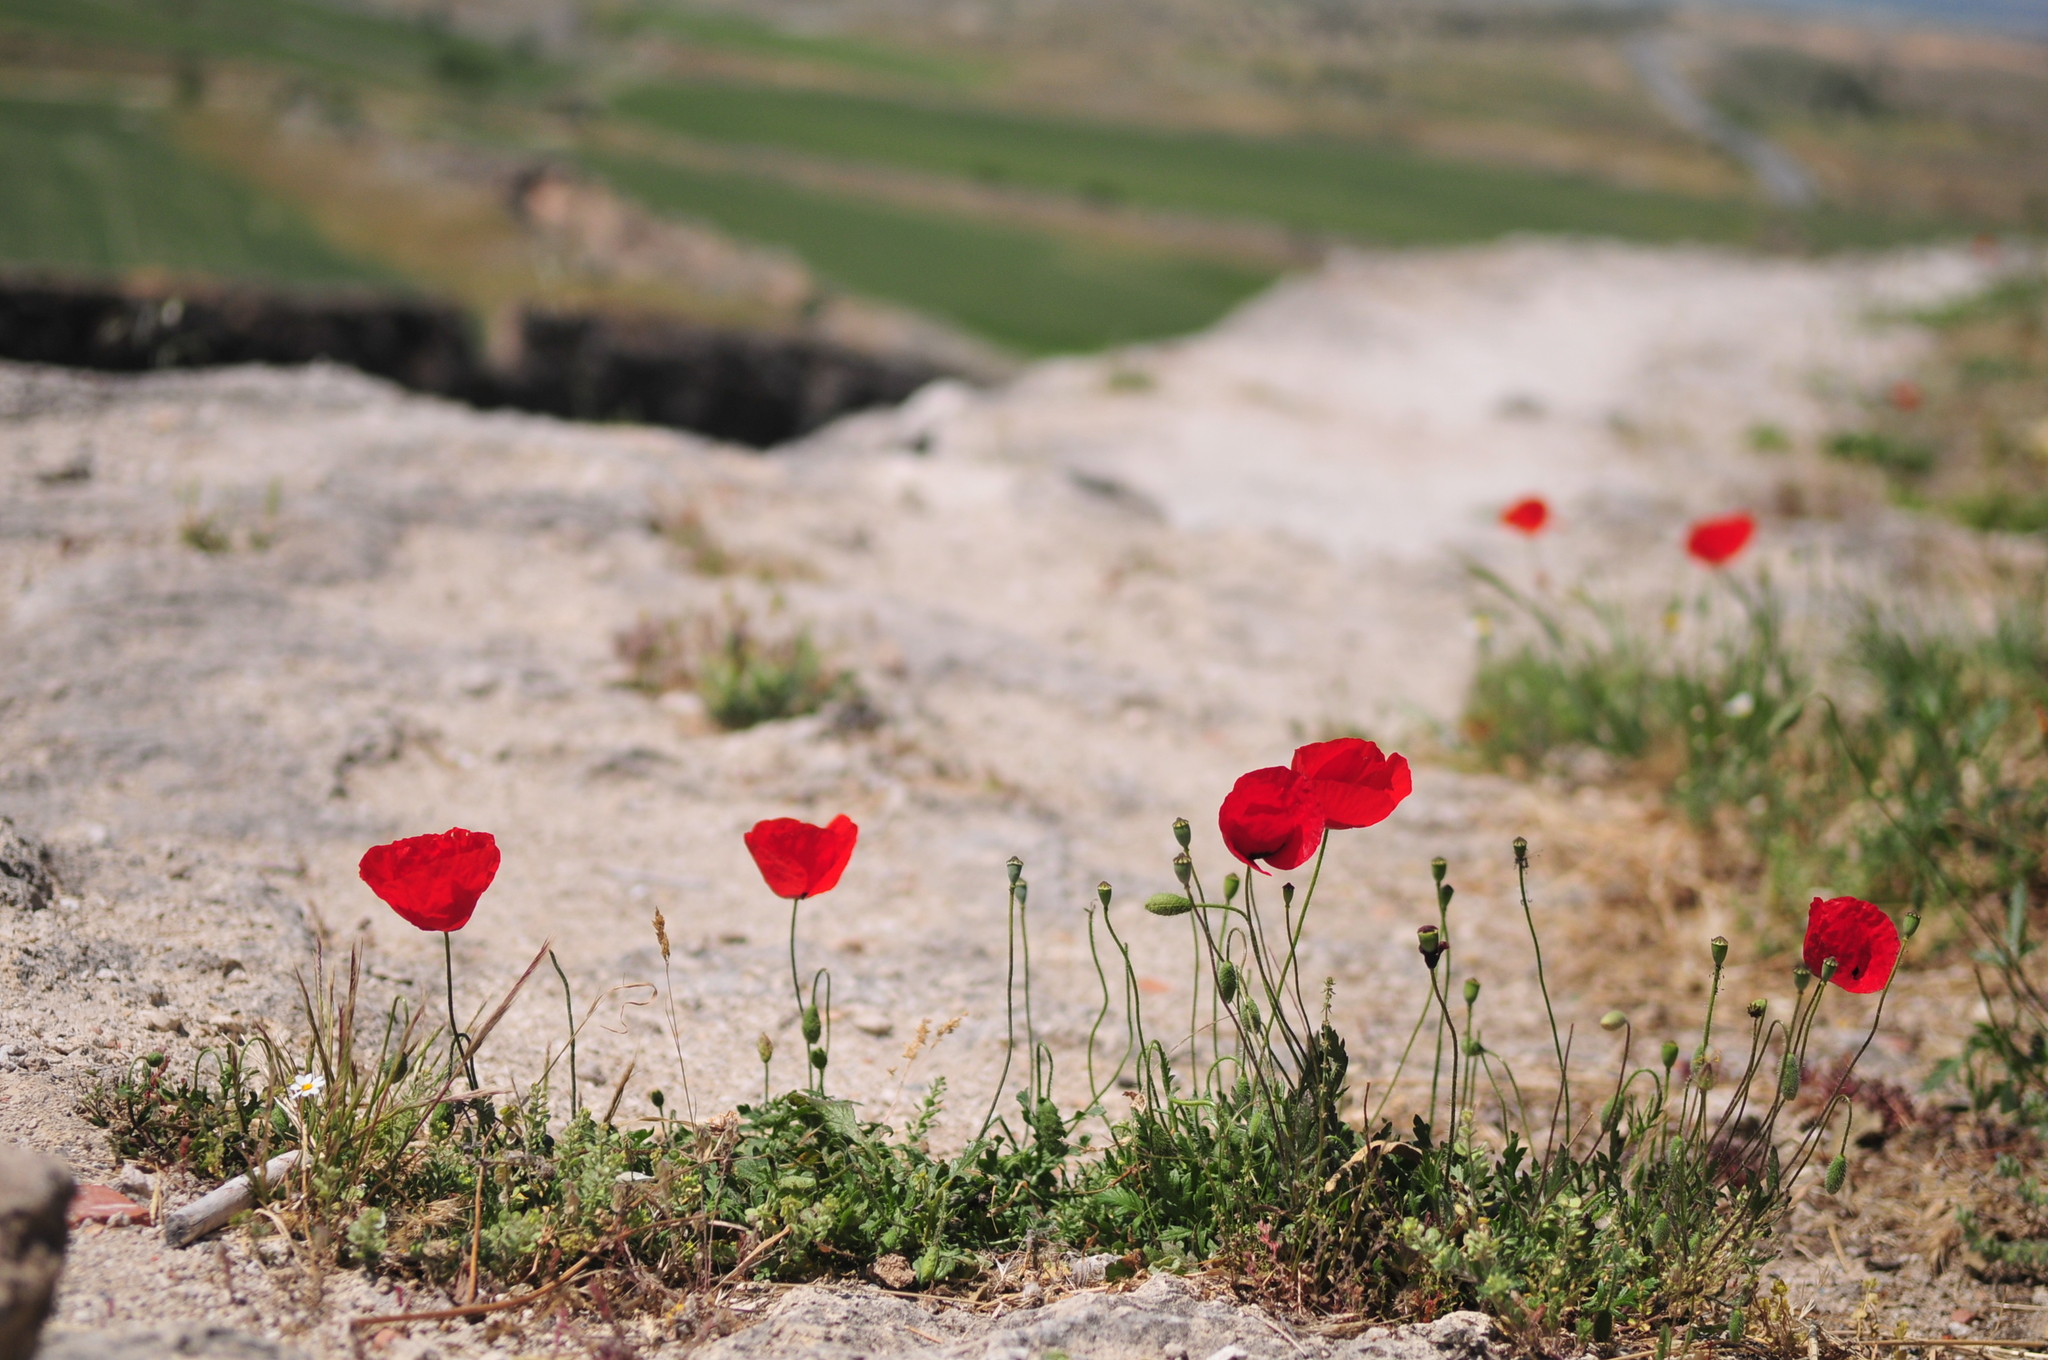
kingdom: Plantae
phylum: Tracheophyta
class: Magnoliopsida
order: Ranunculales
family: Papaveraceae
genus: Papaver
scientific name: Papaver rhoeas
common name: Corn poppy
